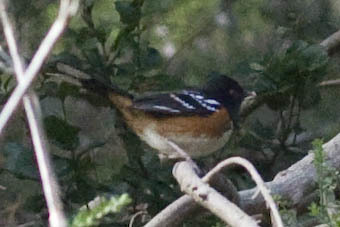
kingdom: Animalia
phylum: Chordata
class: Aves
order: Passeriformes
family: Passerellidae
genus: Pipilo
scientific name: Pipilo maculatus
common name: Spotted towhee
